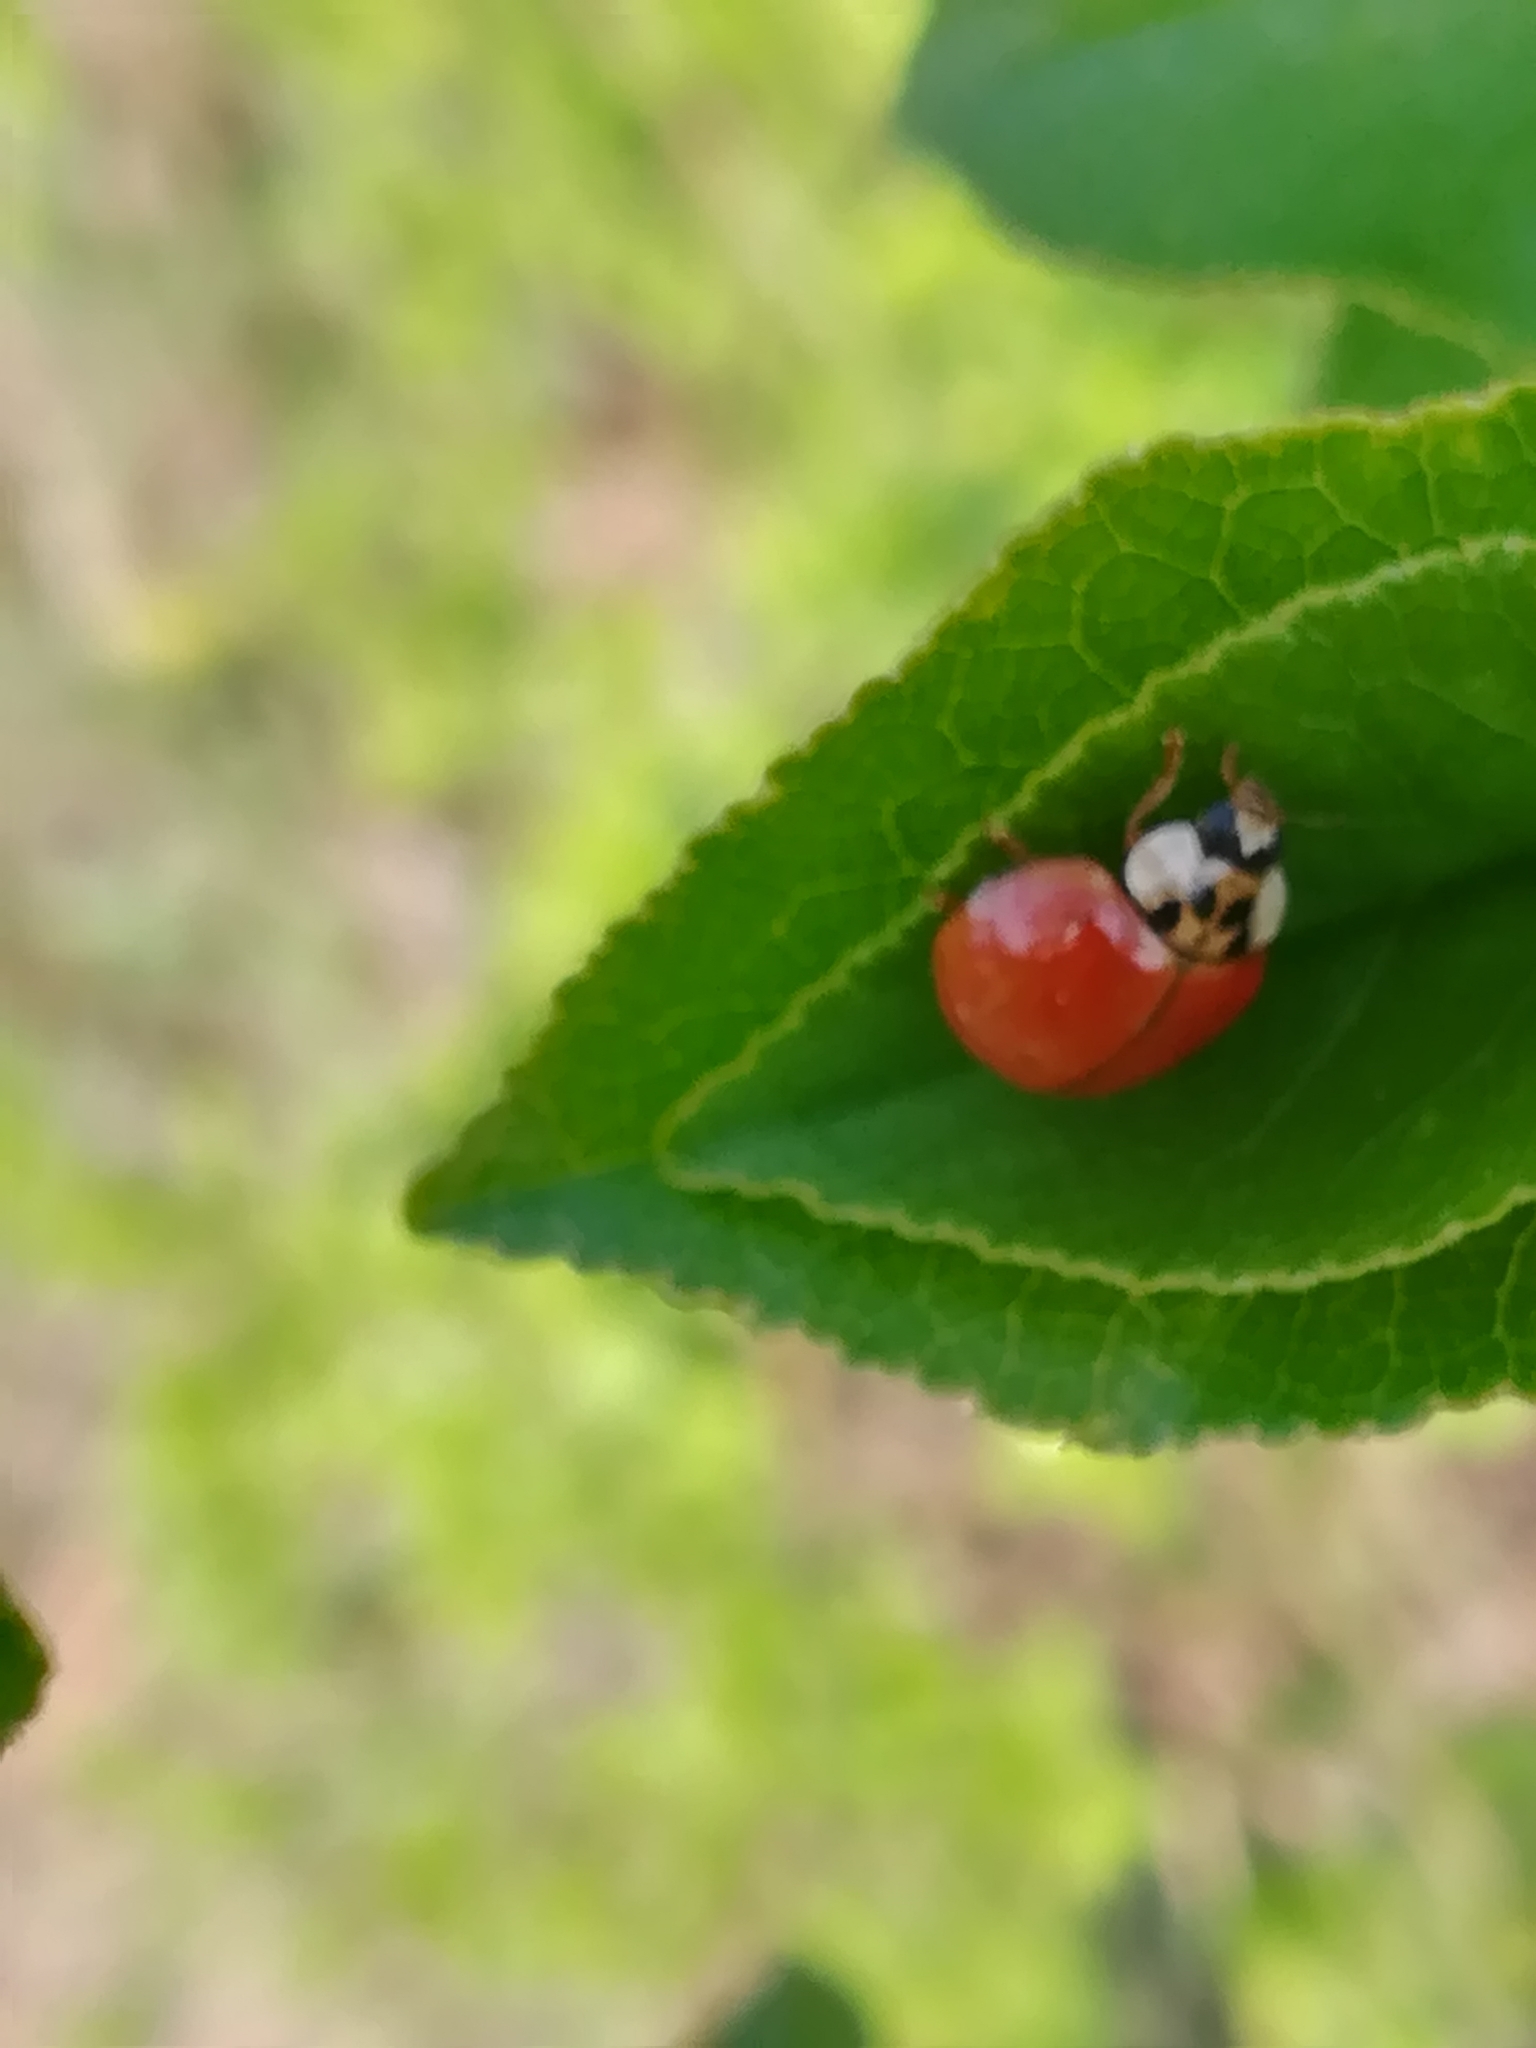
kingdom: Animalia
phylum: Arthropoda
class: Insecta
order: Coleoptera
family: Coccinellidae
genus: Harmonia
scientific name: Harmonia axyridis
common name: Harlequin ladybird
